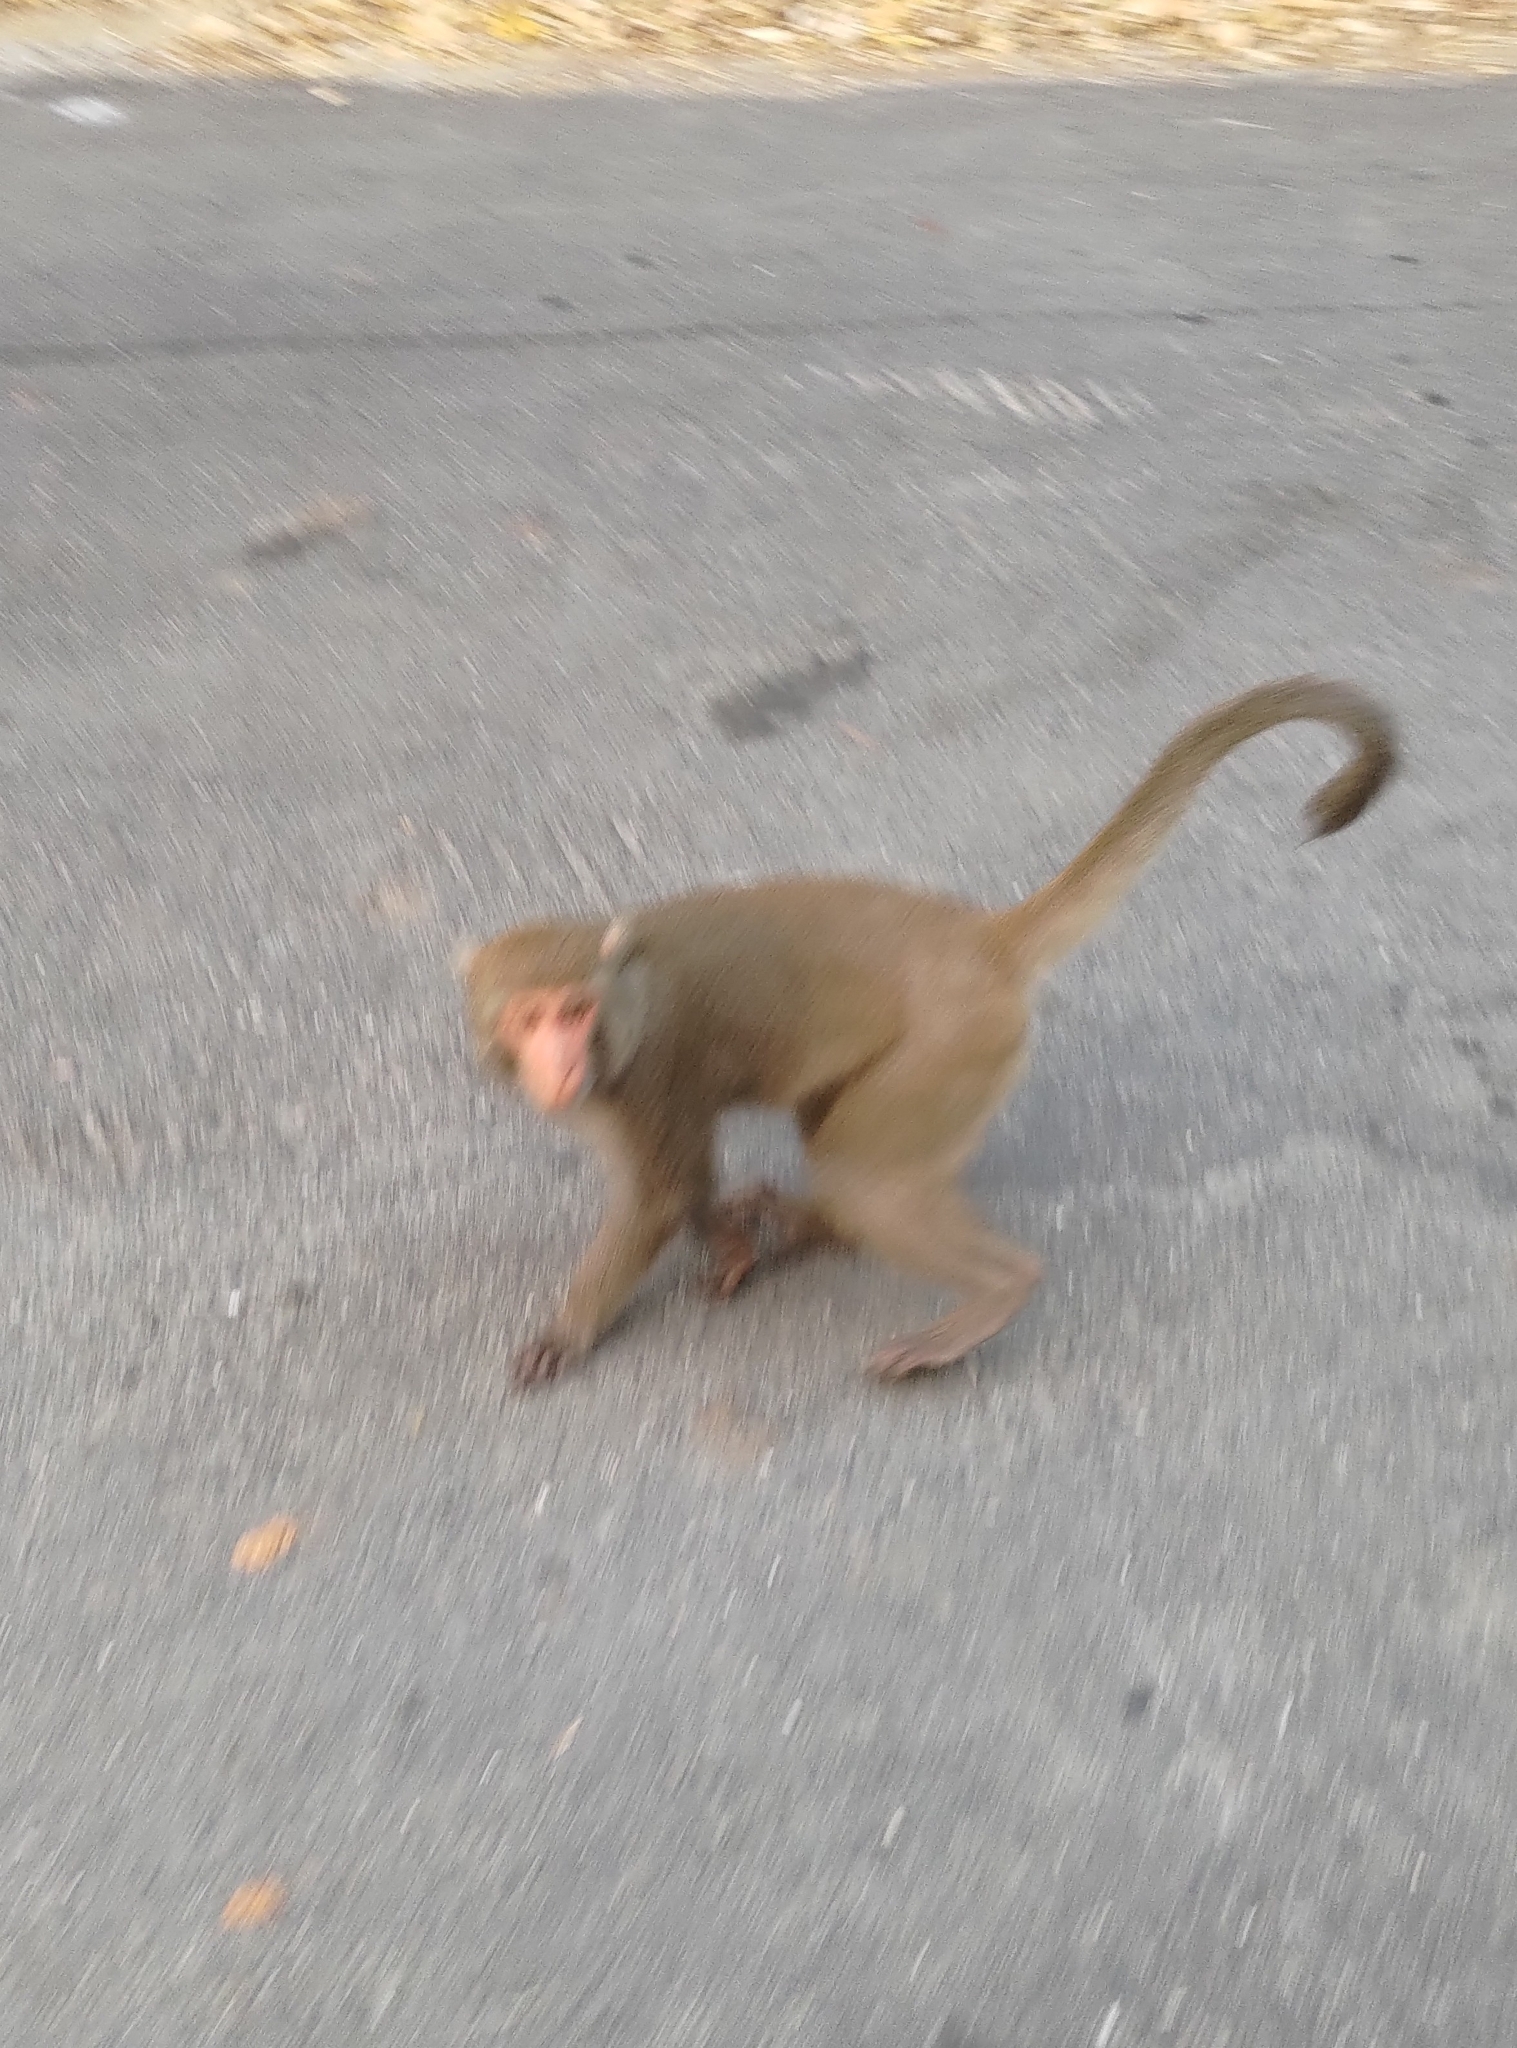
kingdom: Animalia
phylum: Chordata
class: Mammalia
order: Primates
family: Cercopithecidae
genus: Macaca
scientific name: Macaca cyclopis
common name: Formosan rock macaque
